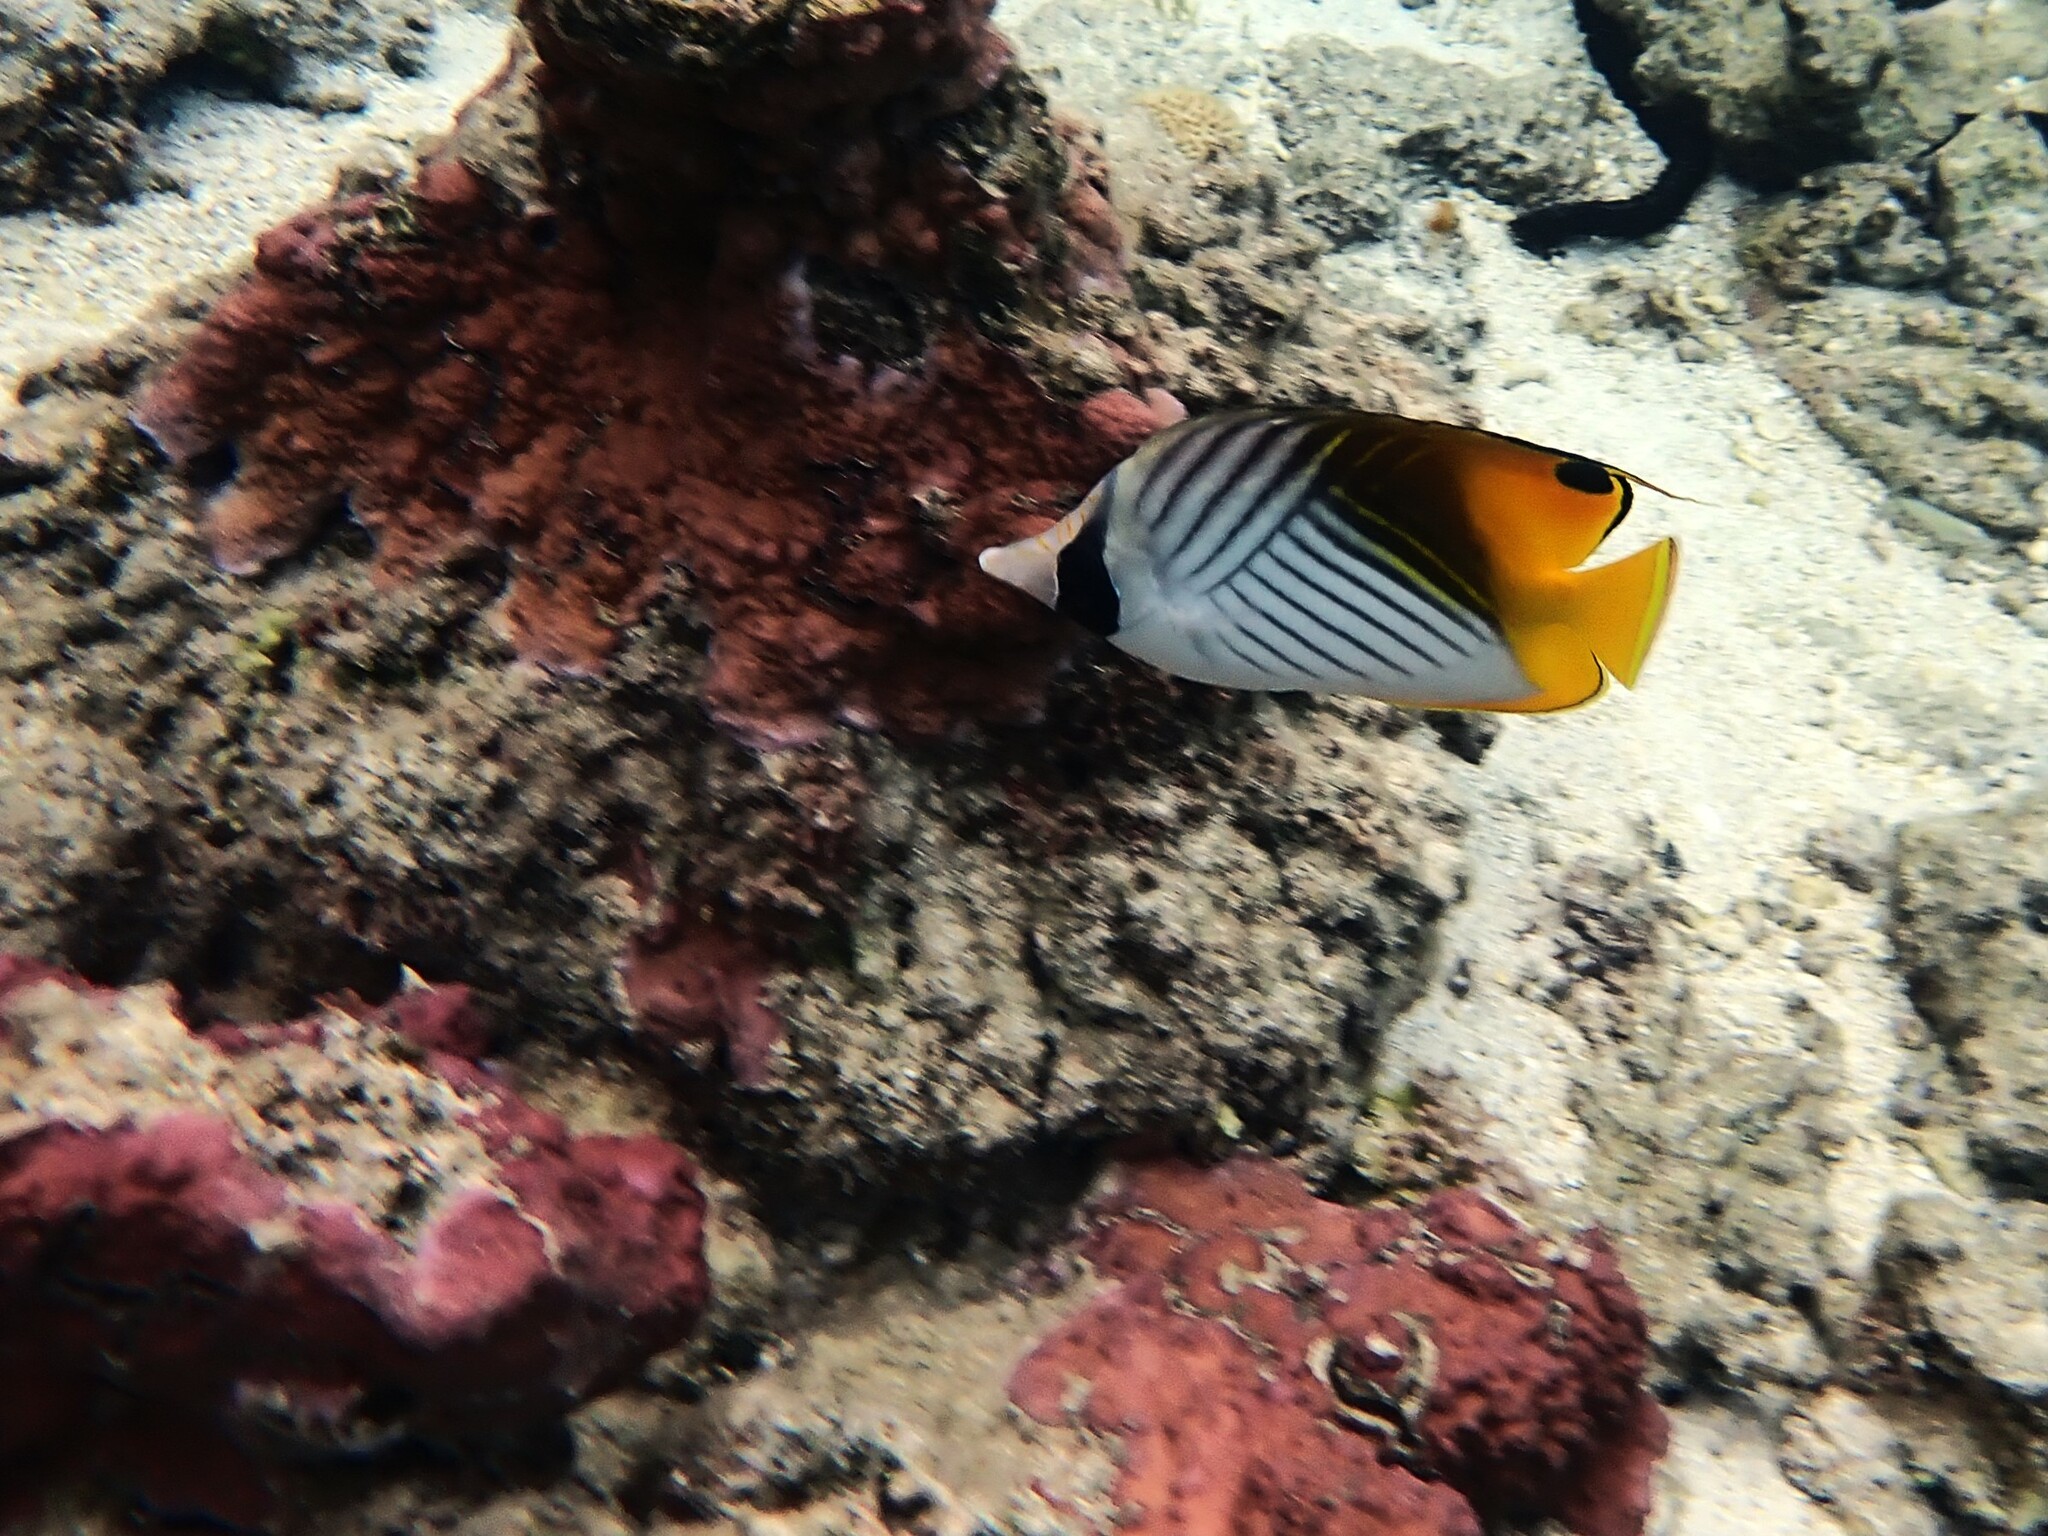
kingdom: Animalia
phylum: Chordata
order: Perciformes
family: Chaetodontidae
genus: Chaetodon
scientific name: Chaetodon auriga
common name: Threadfin butterflyfish
